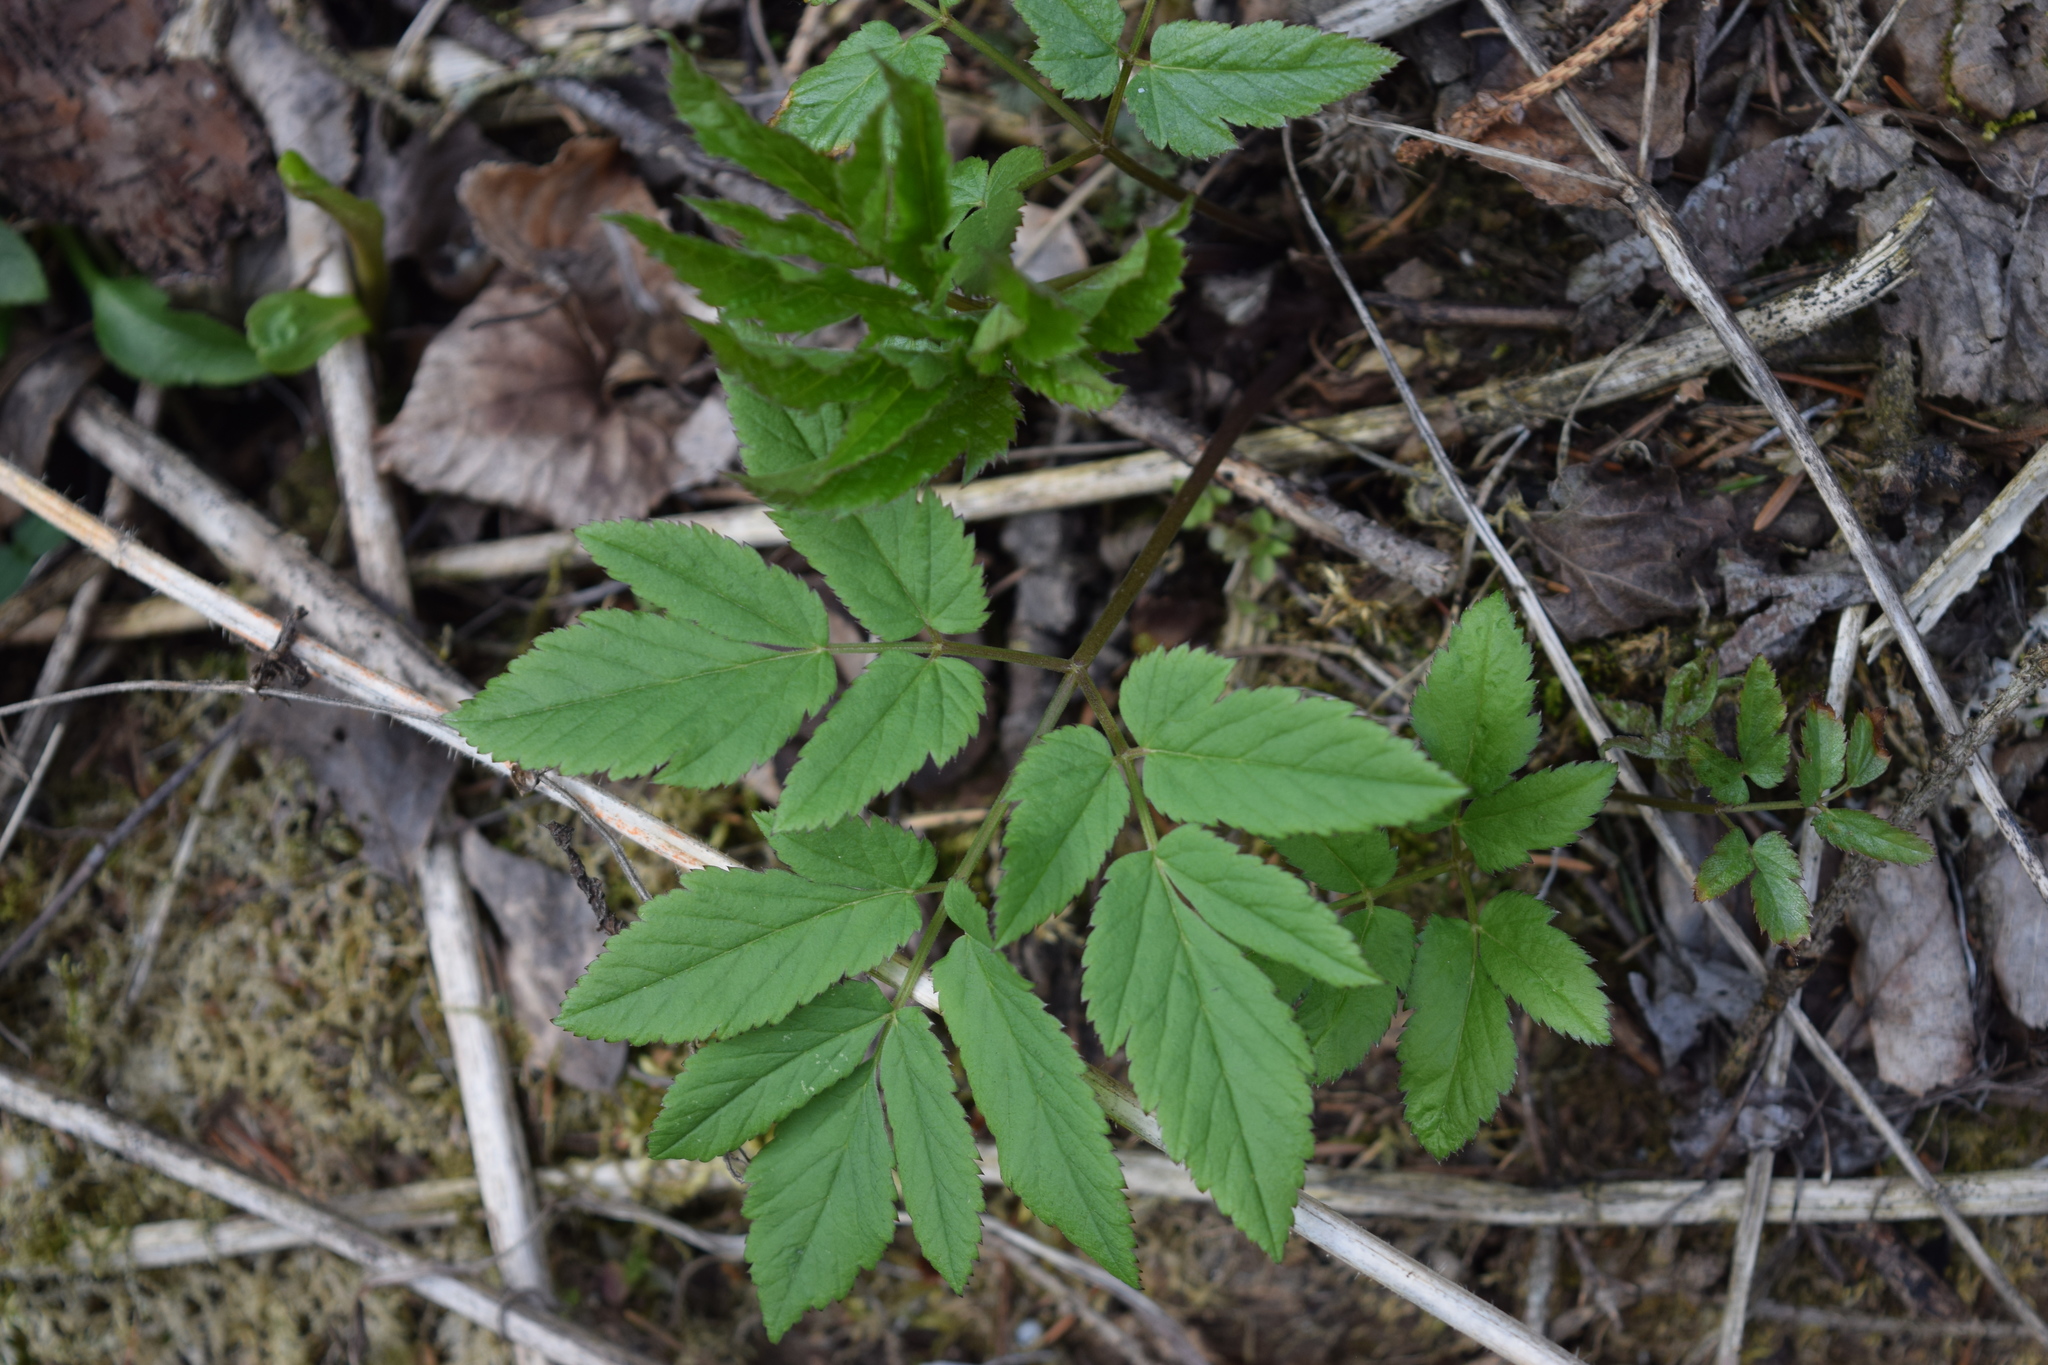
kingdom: Plantae
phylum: Tracheophyta
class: Magnoliopsida
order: Apiales
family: Apiaceae
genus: Aegopodium
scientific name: Aegopodium podagraria
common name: Ground-elder
